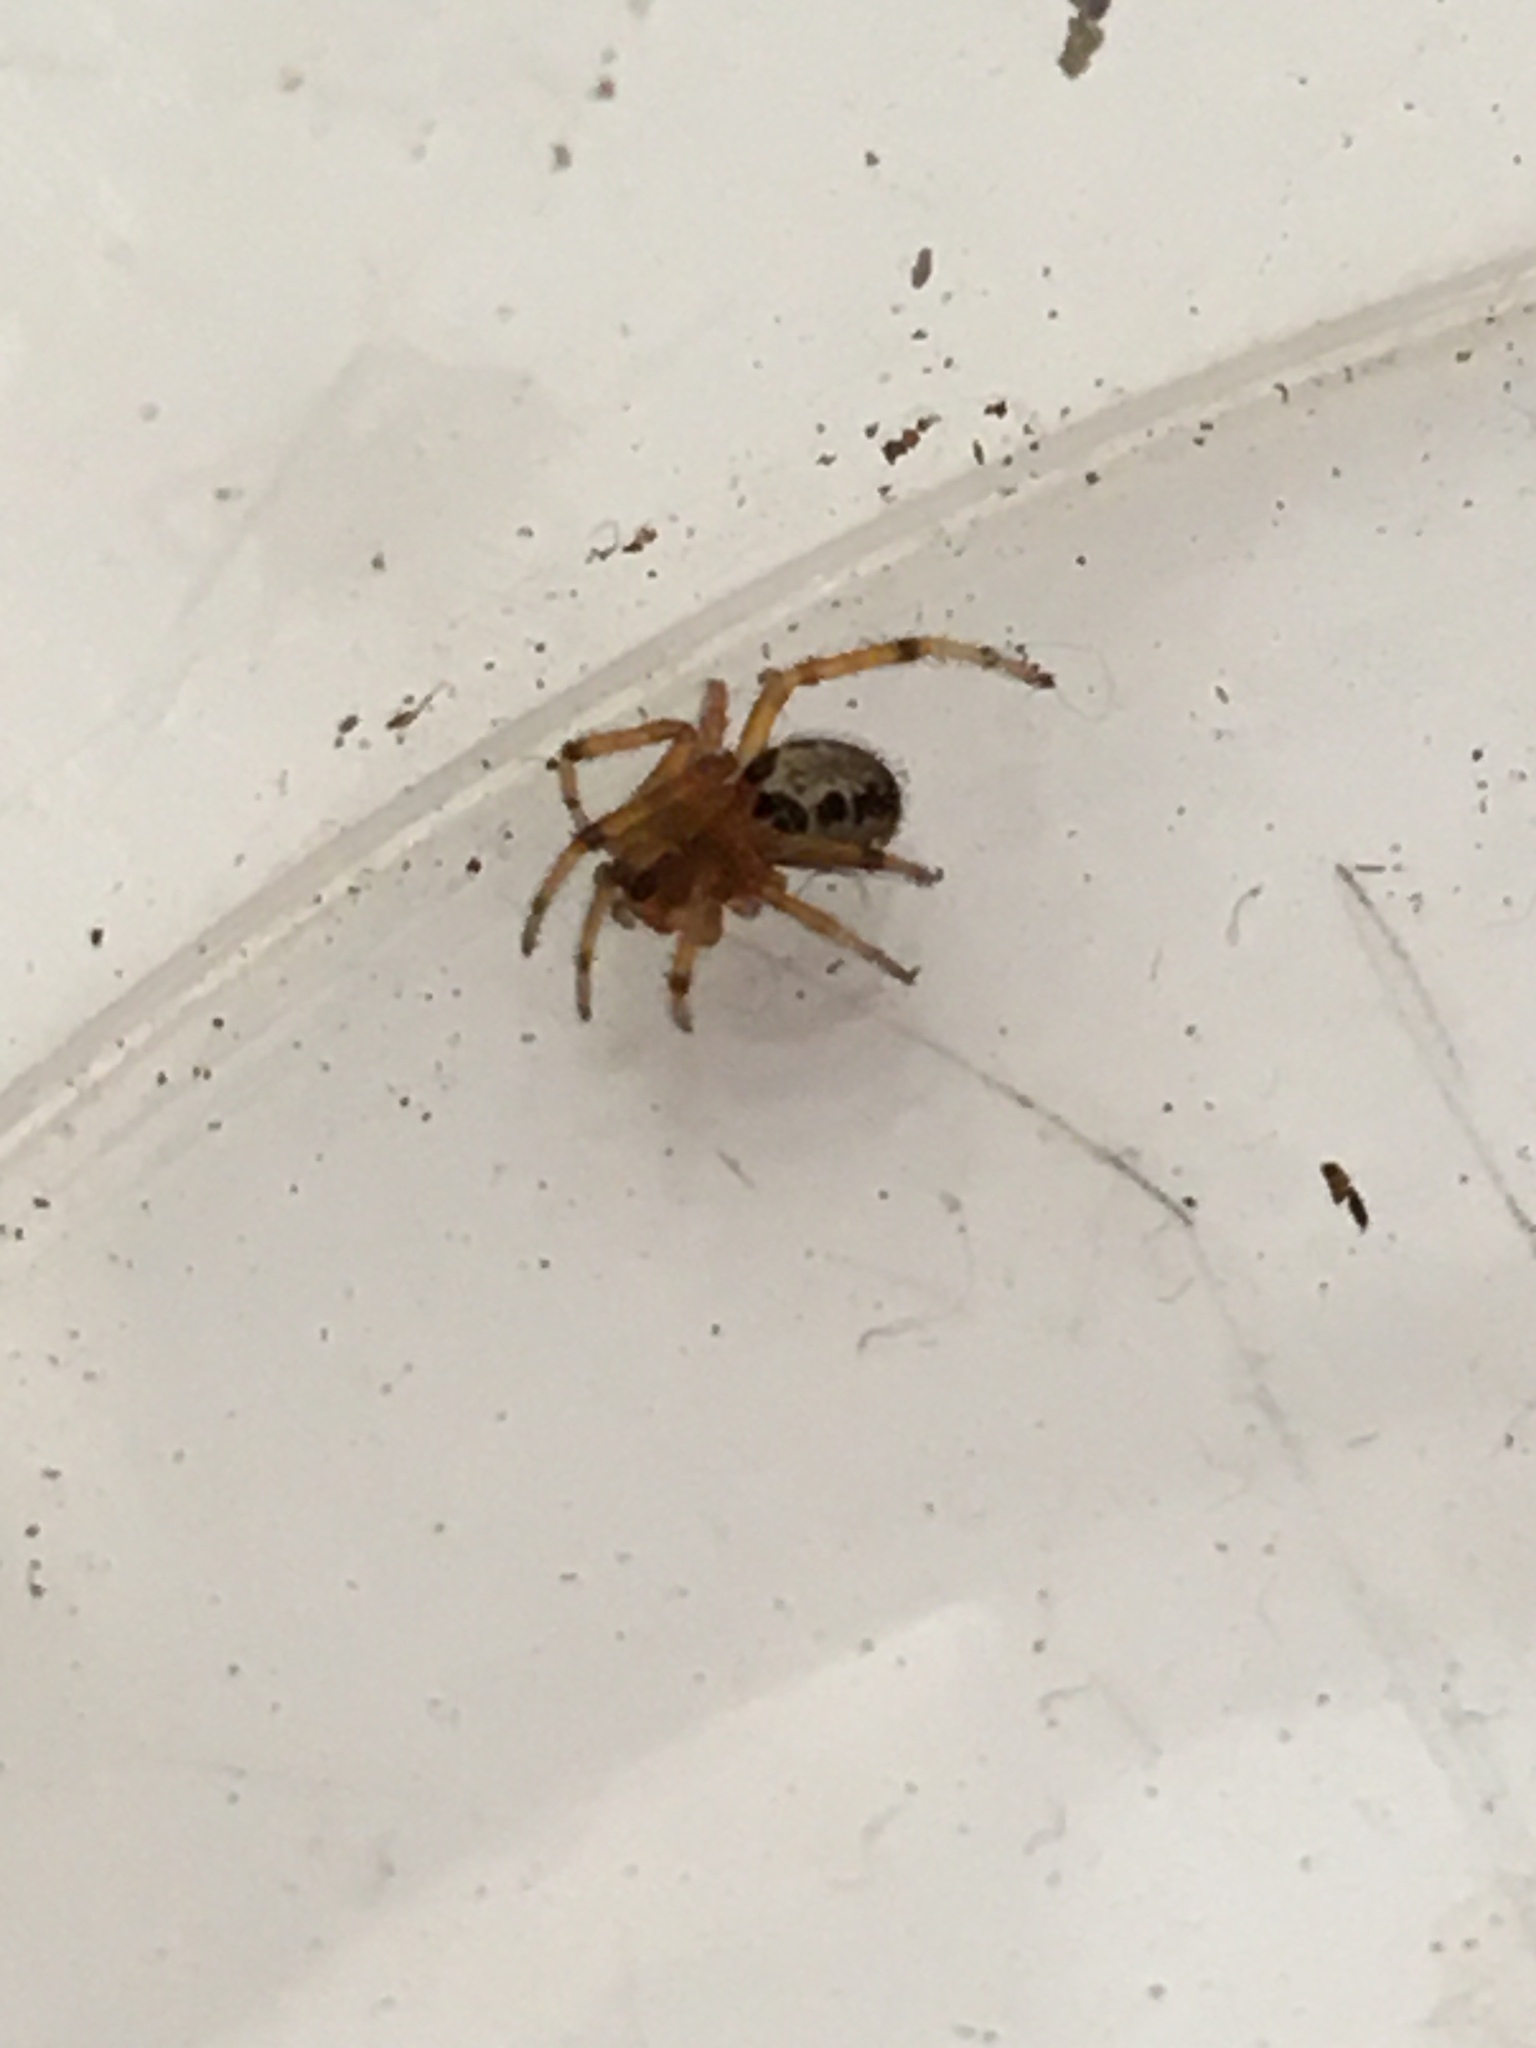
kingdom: Animalia
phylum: Arthropoda
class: Arachnida
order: Araneae
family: Theridiidae
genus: Steatoda
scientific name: Steatoda nobilis
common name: Cobweb weaver
